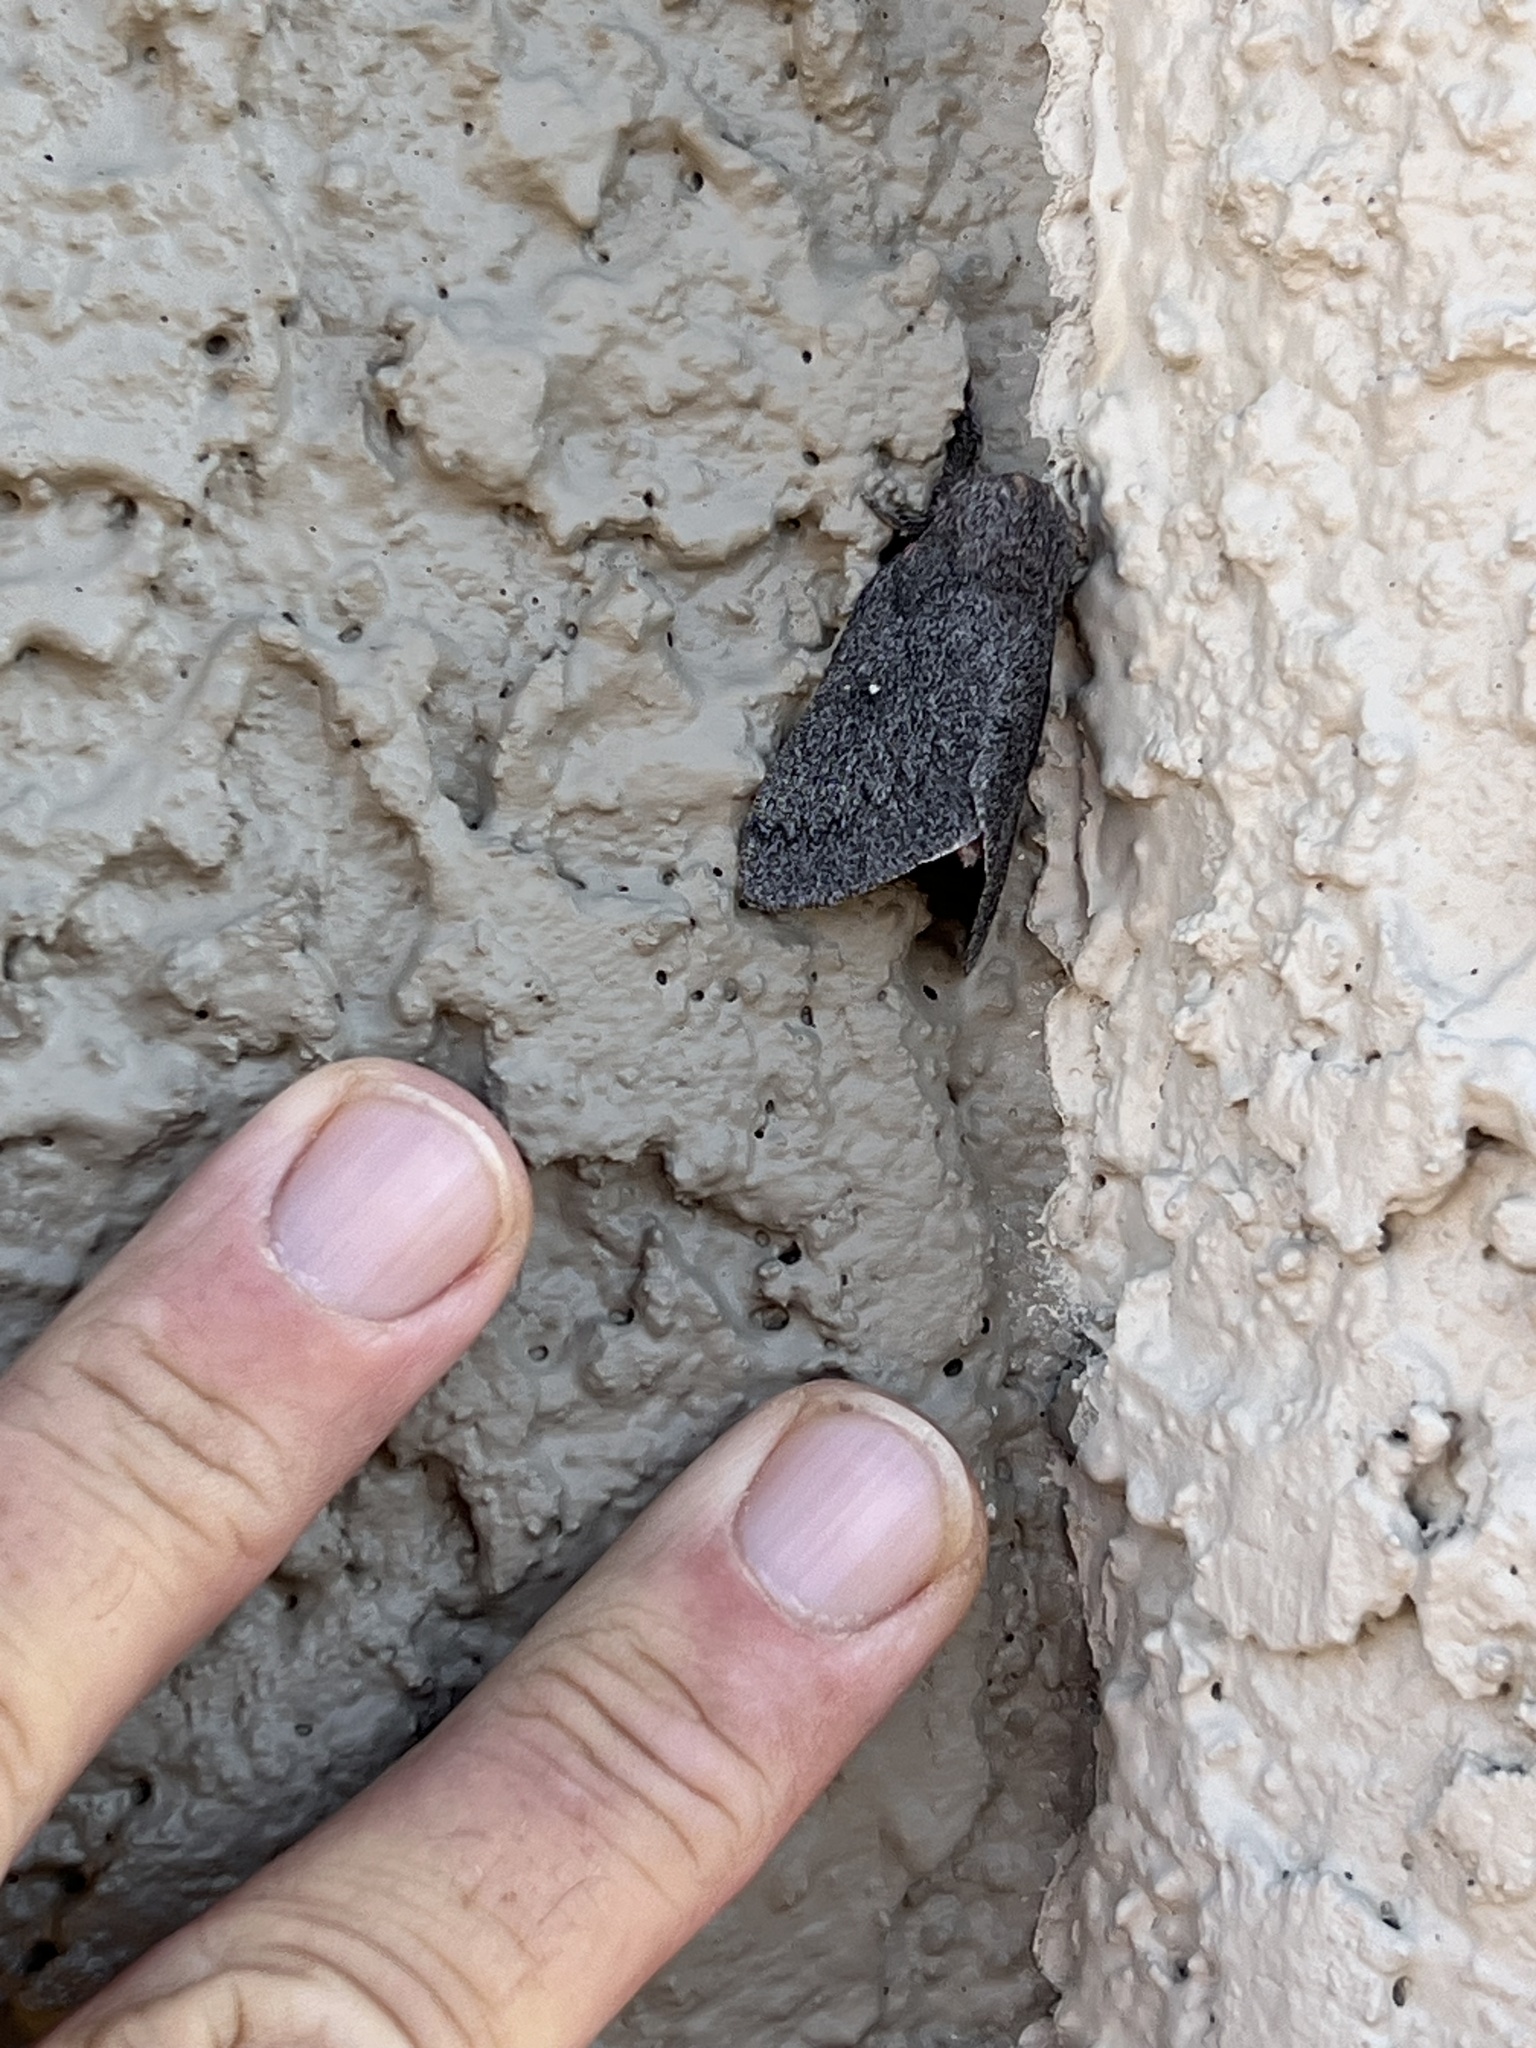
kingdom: Animalia
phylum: Arthropoda
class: Insecta
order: Lepidoptera
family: Saturniidae
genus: Syssphinx
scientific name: Syssphinx hubbardi
